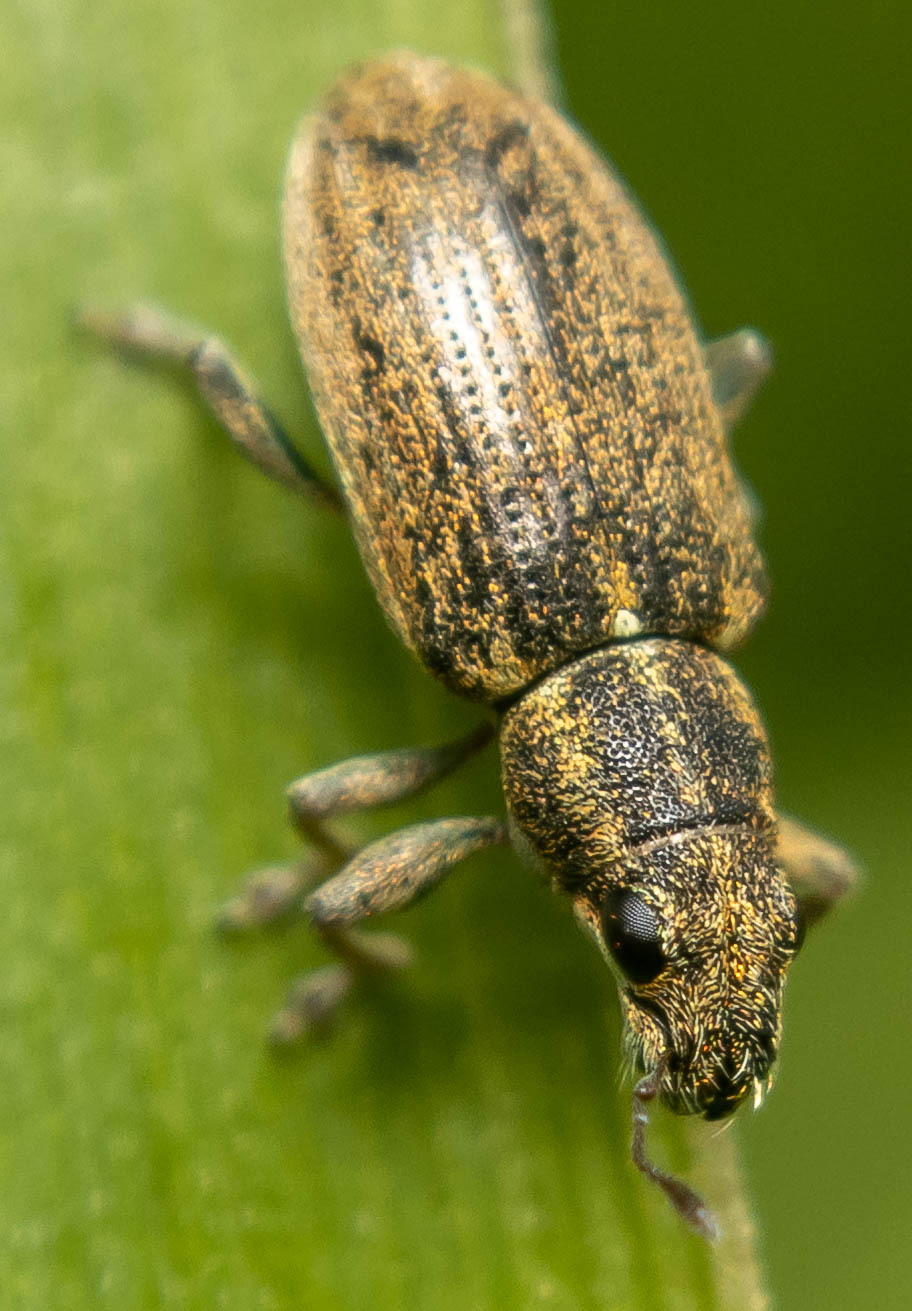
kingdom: Animalia
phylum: Arthropoda
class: Insecta
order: Coleoptera
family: Curculionidae
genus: Sitona
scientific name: Sitona lineatus
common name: Weevil
